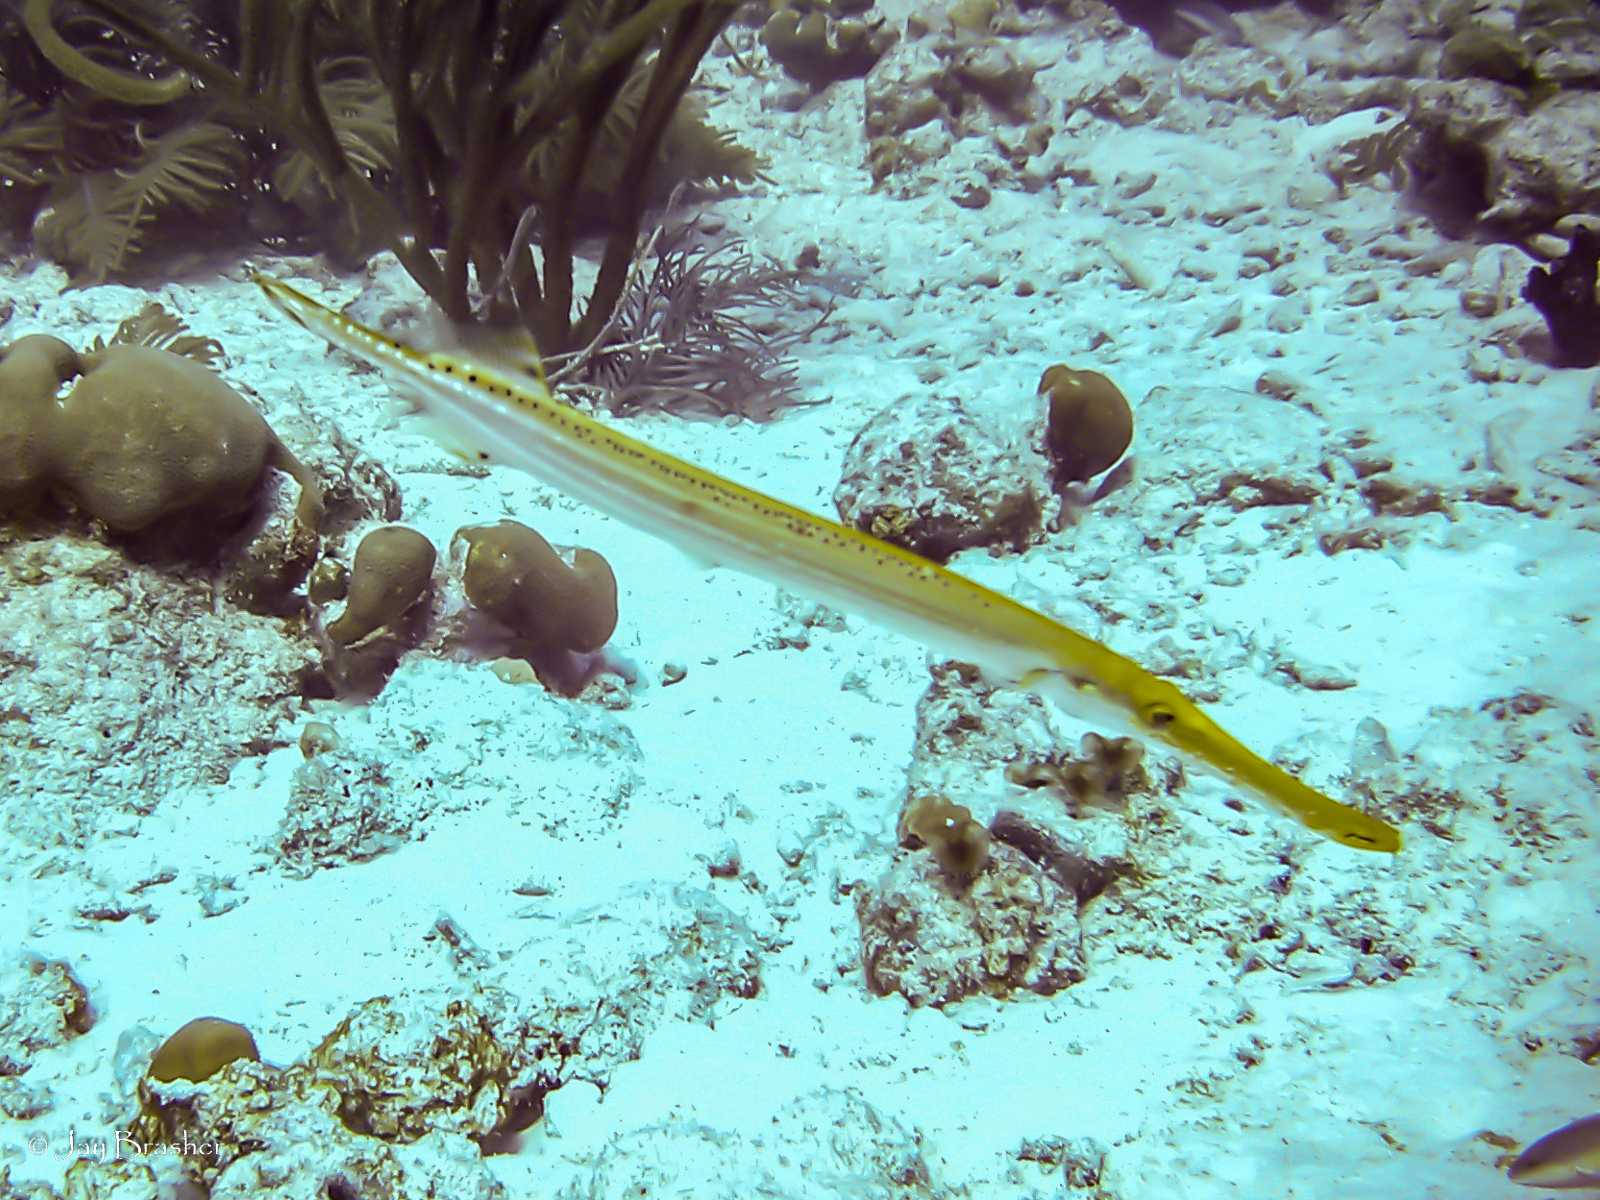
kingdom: Animalia
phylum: Chordata
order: Syngnathiformes
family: Aulostomidae
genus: Aulostomus
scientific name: Aulostomus maculatus
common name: West atlantic trumpetfish
